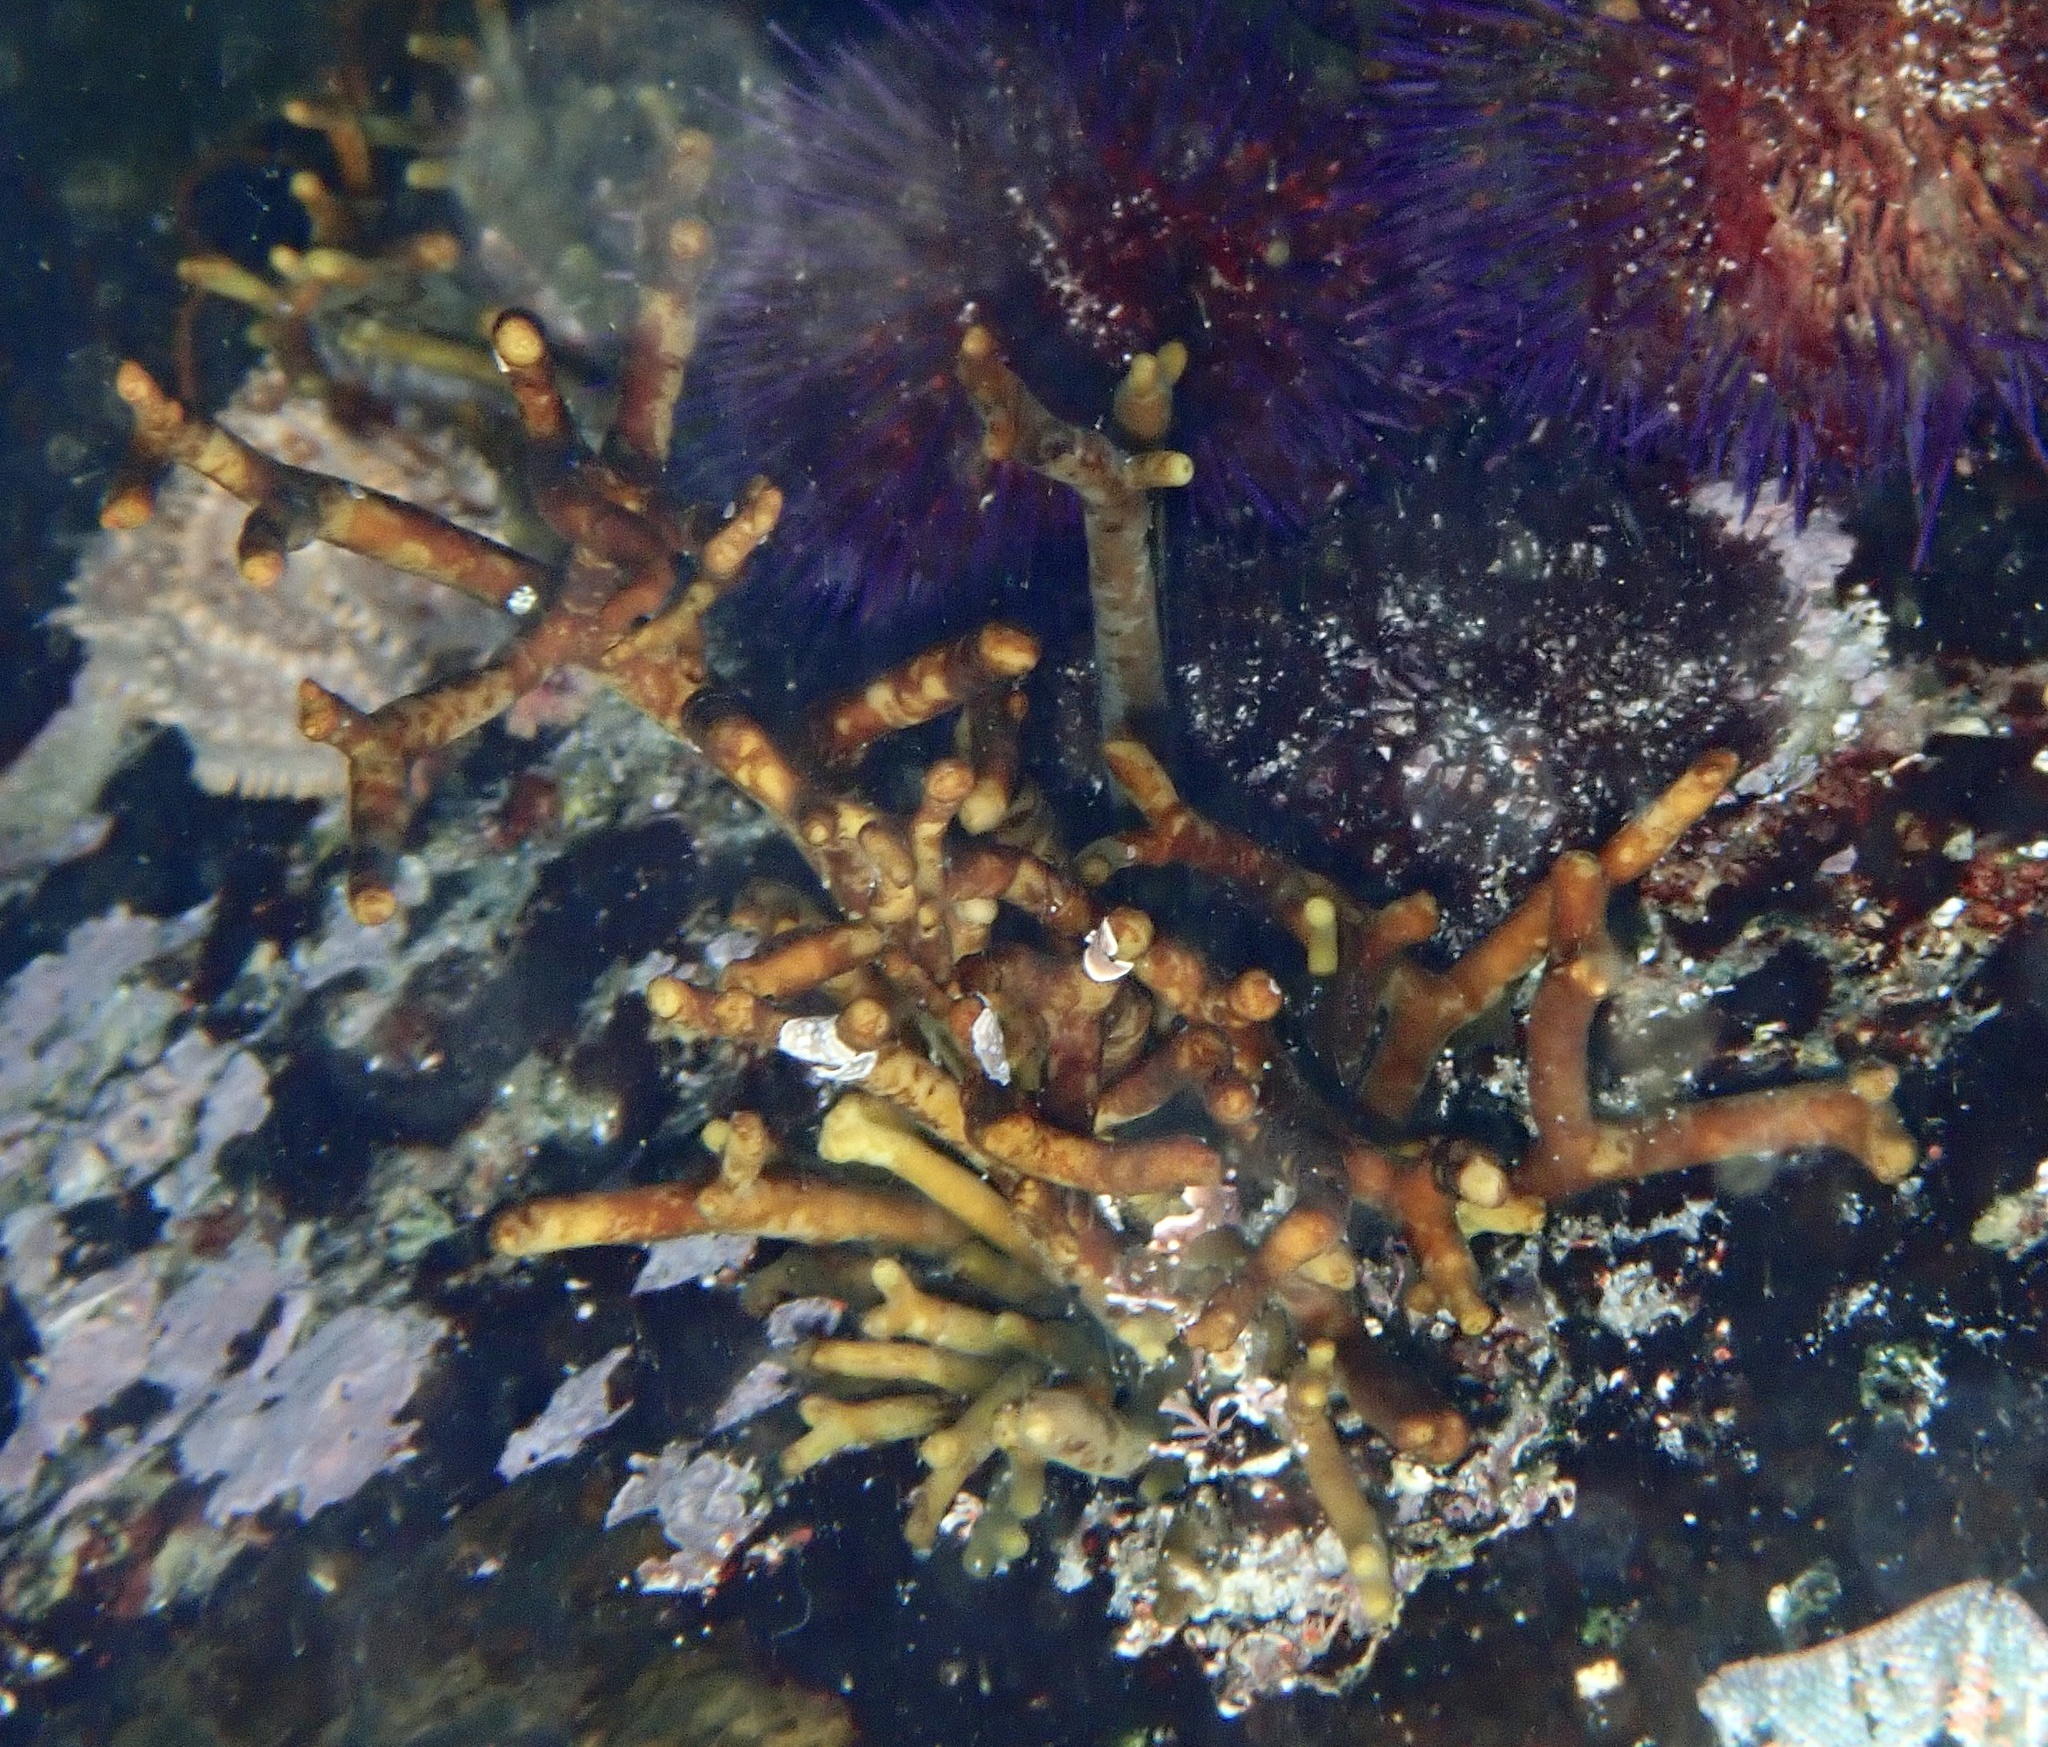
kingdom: Chromista
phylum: Ochrophyta
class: Phaeophyceae
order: Fucales
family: Bifurcariopsidaceae
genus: Bifurcariopsis
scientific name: Bifurcariopsis
